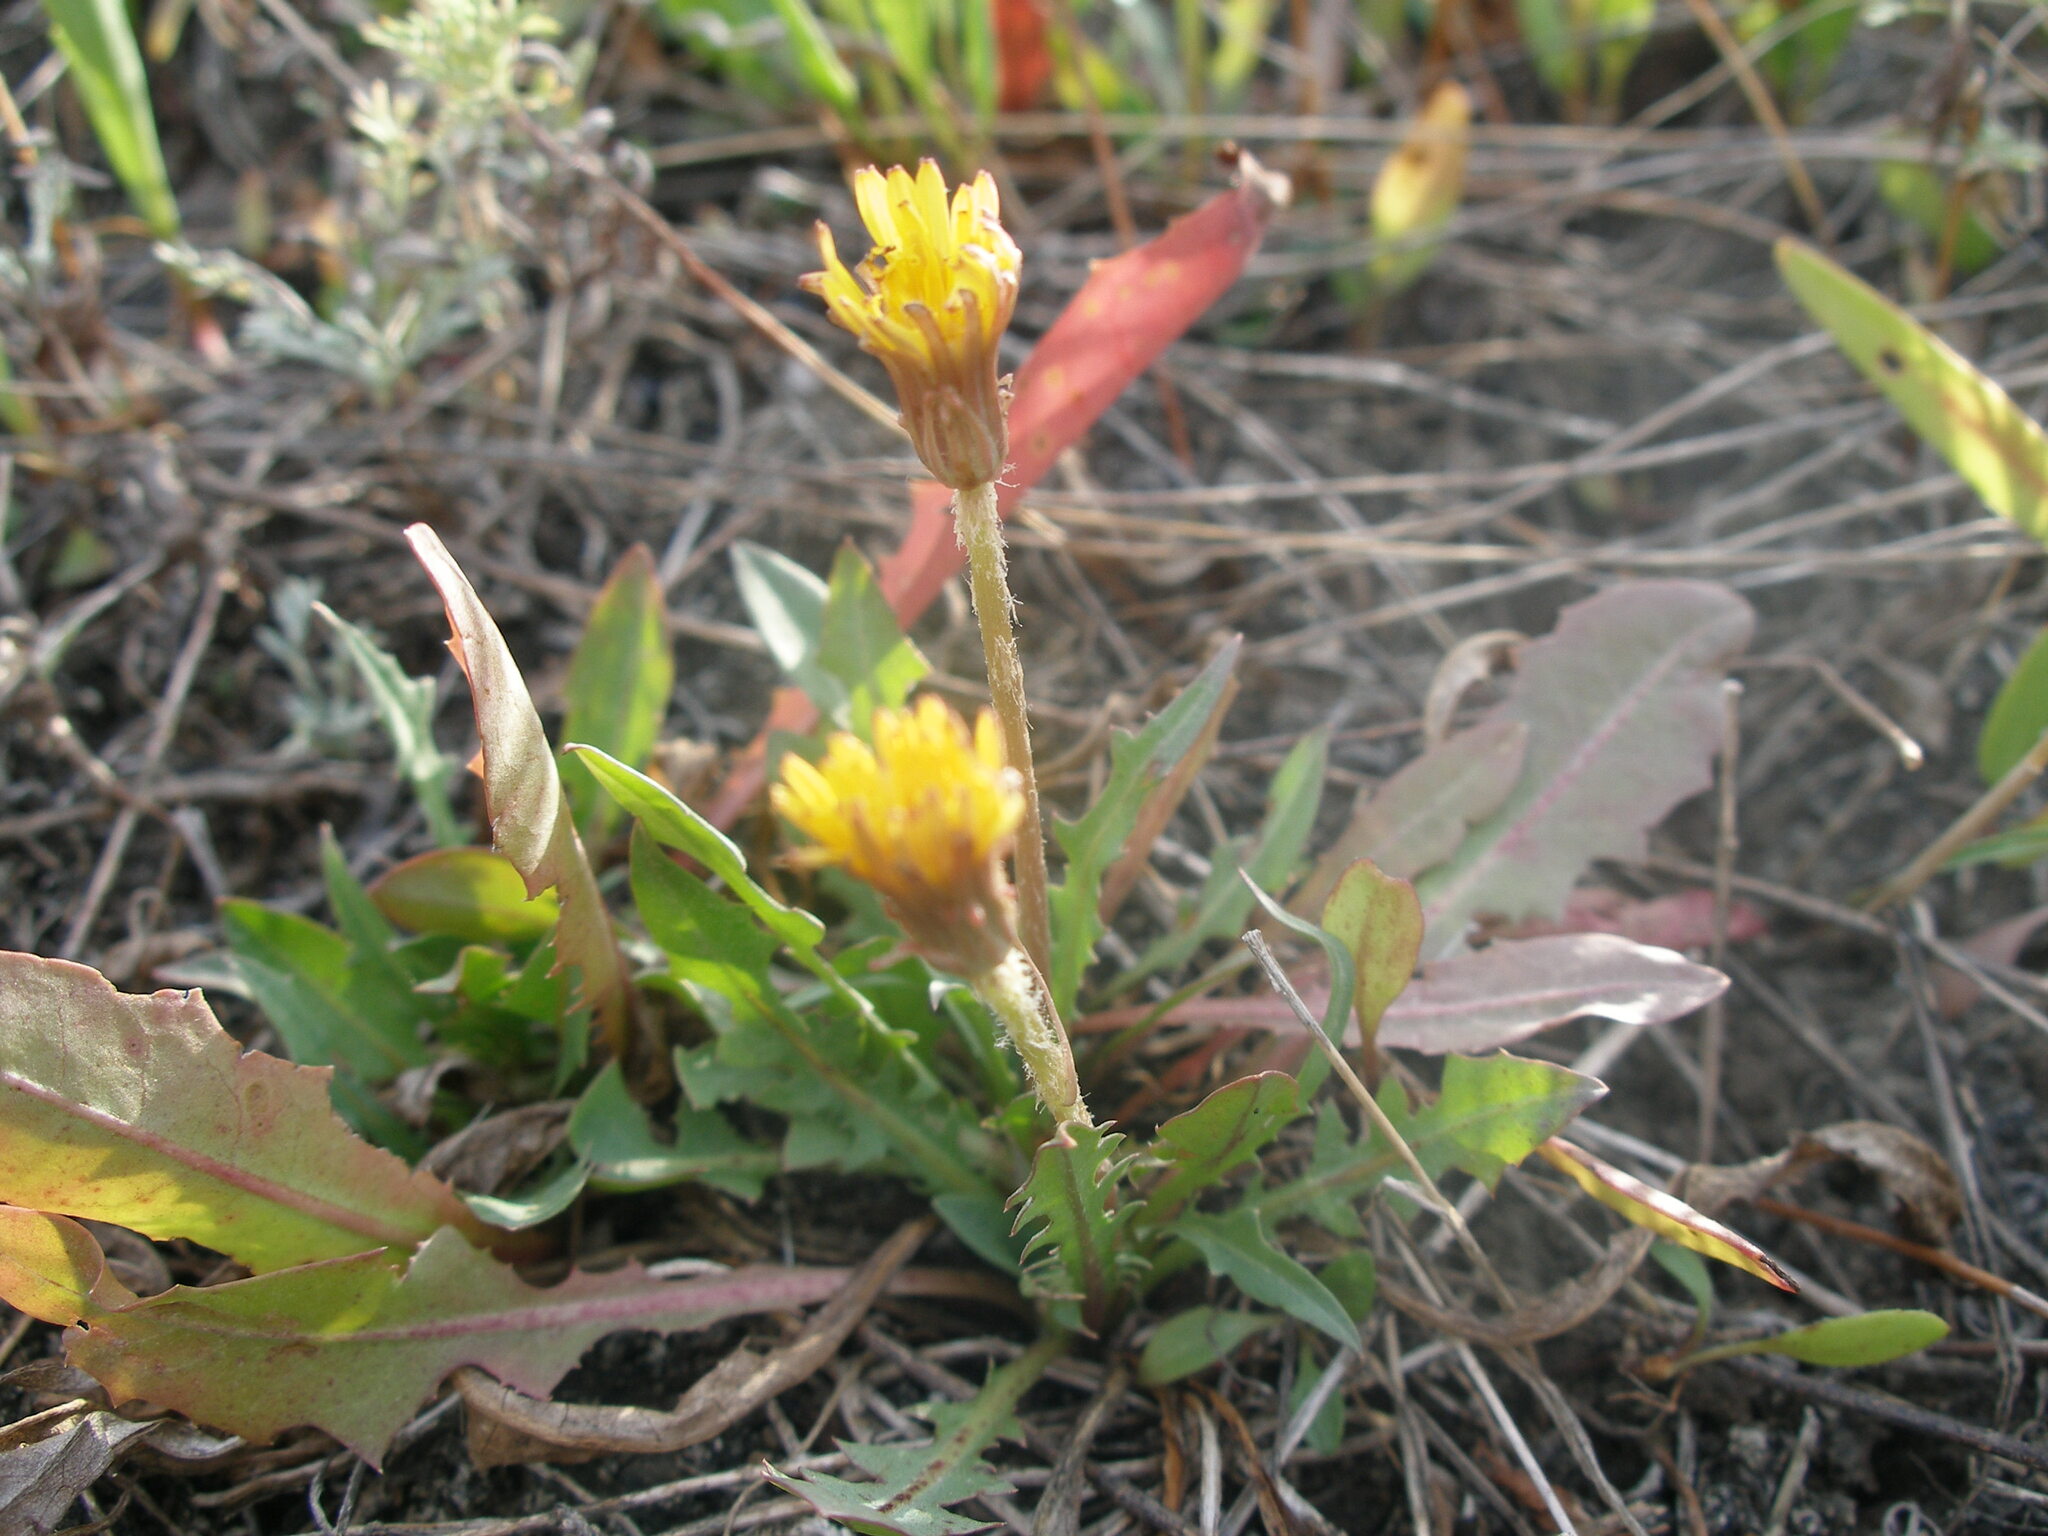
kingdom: Plantae
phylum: Tracheophyta
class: Magnoliopsida
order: Asterales
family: Asteraceae
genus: Taraxacum
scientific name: Taraxacum bessarabicum
